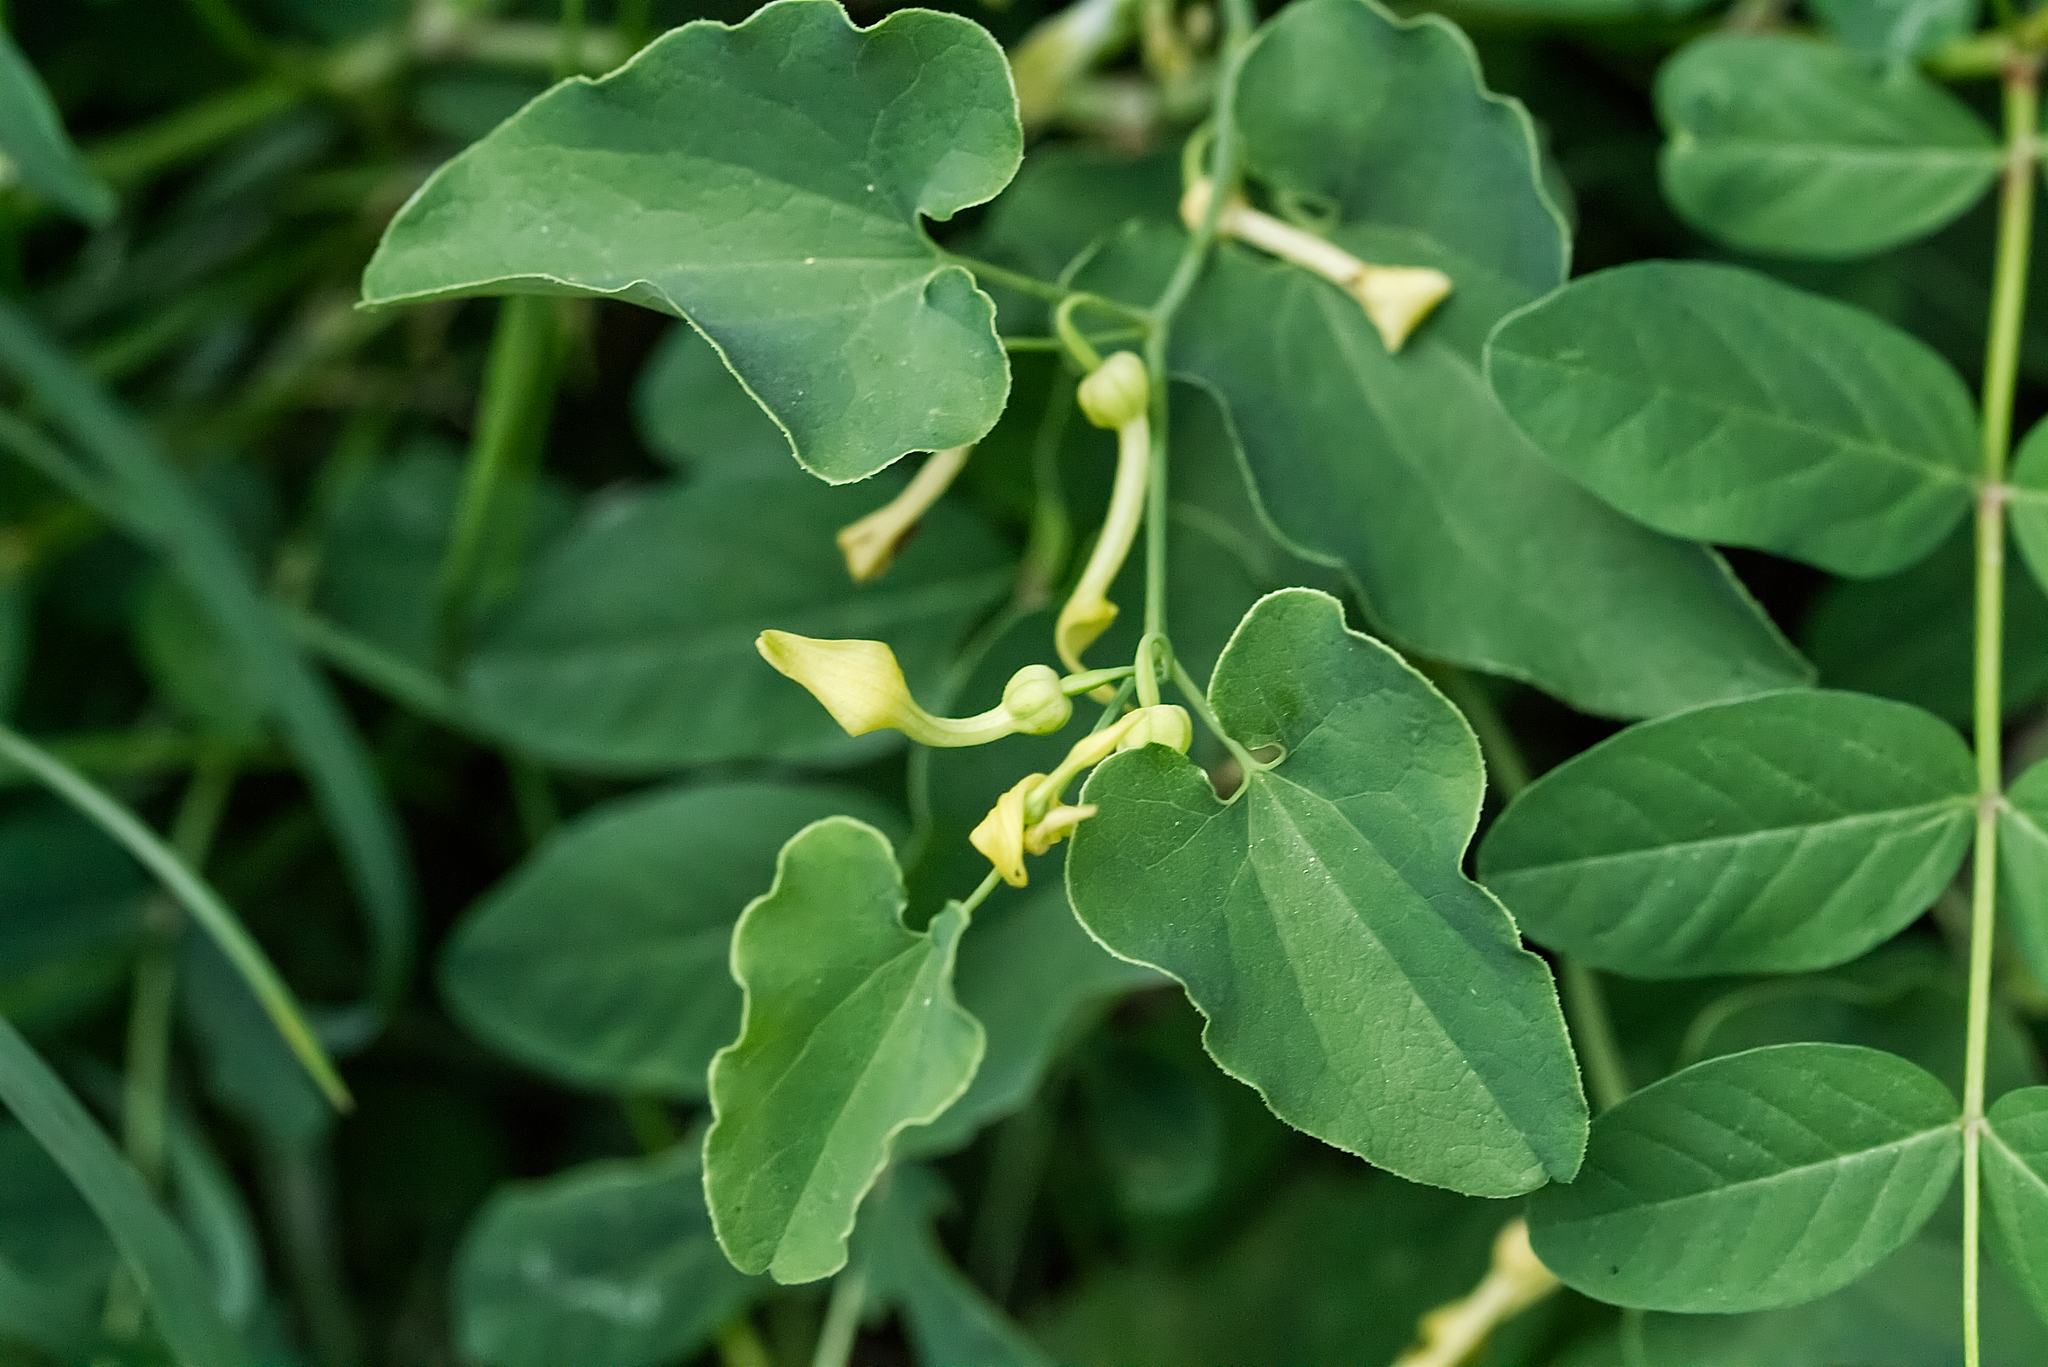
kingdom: Plantae
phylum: Tracheophyta
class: Magnoliopsida
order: Piperales
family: Aristolochiaceae
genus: Aristolochia
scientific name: Aristolochia clematitis
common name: Birthwort
